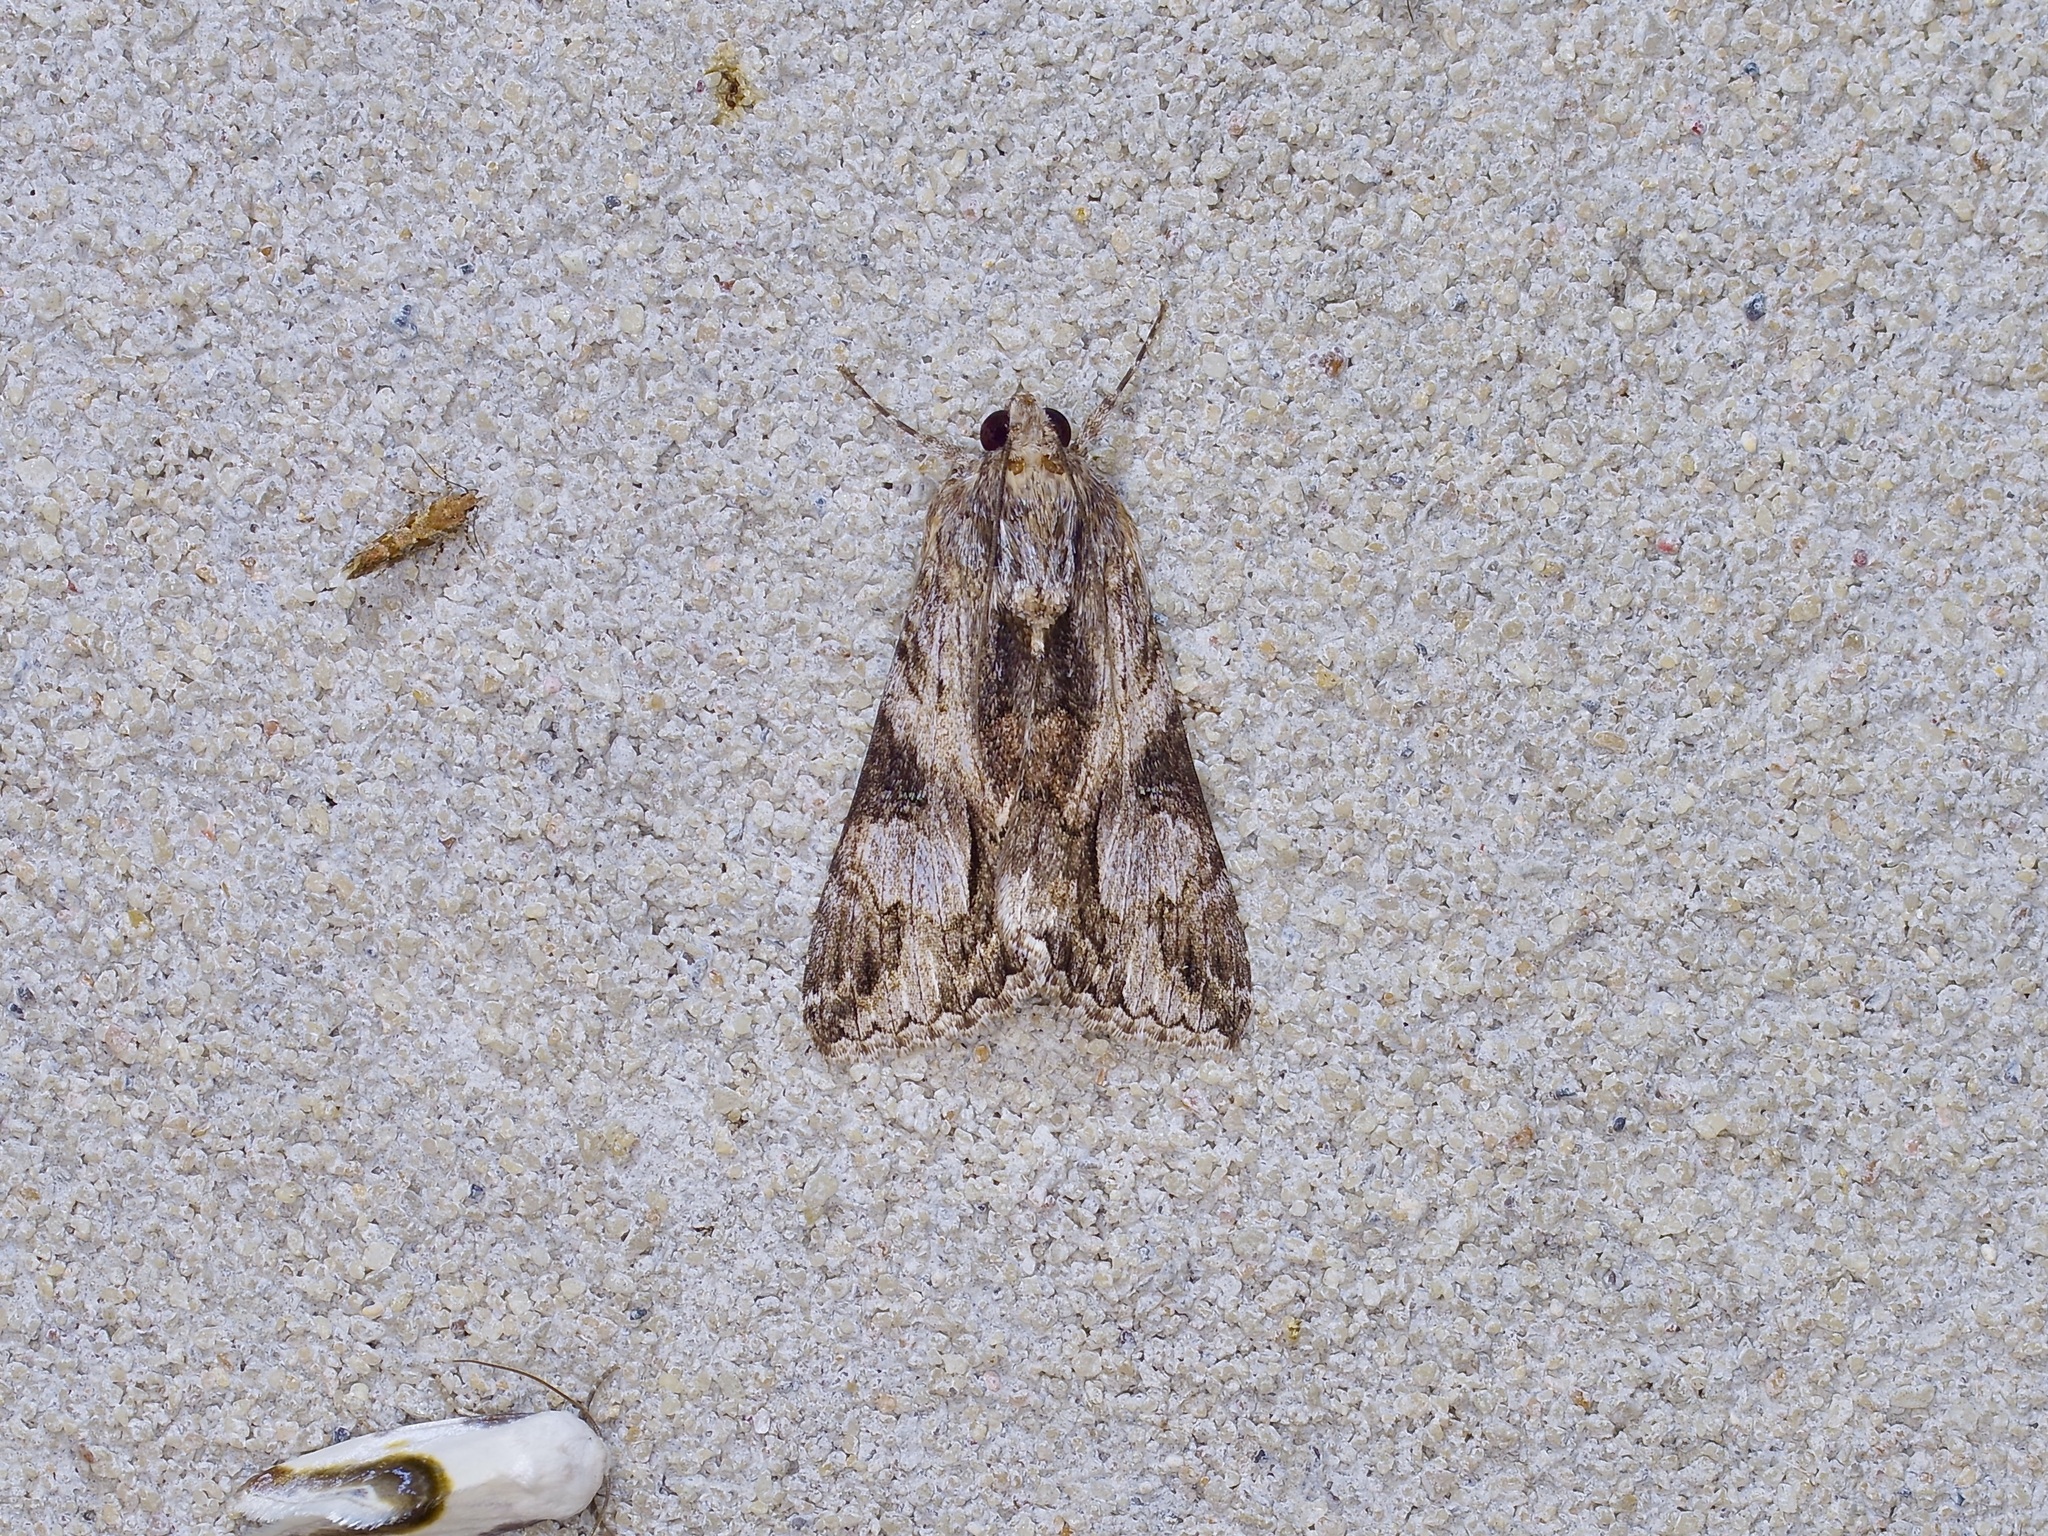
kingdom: Animalia
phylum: Arthropoda
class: Insecta
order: Lepidoptera
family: Erebidae
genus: Melipotis
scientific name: Melipotis jucunda
